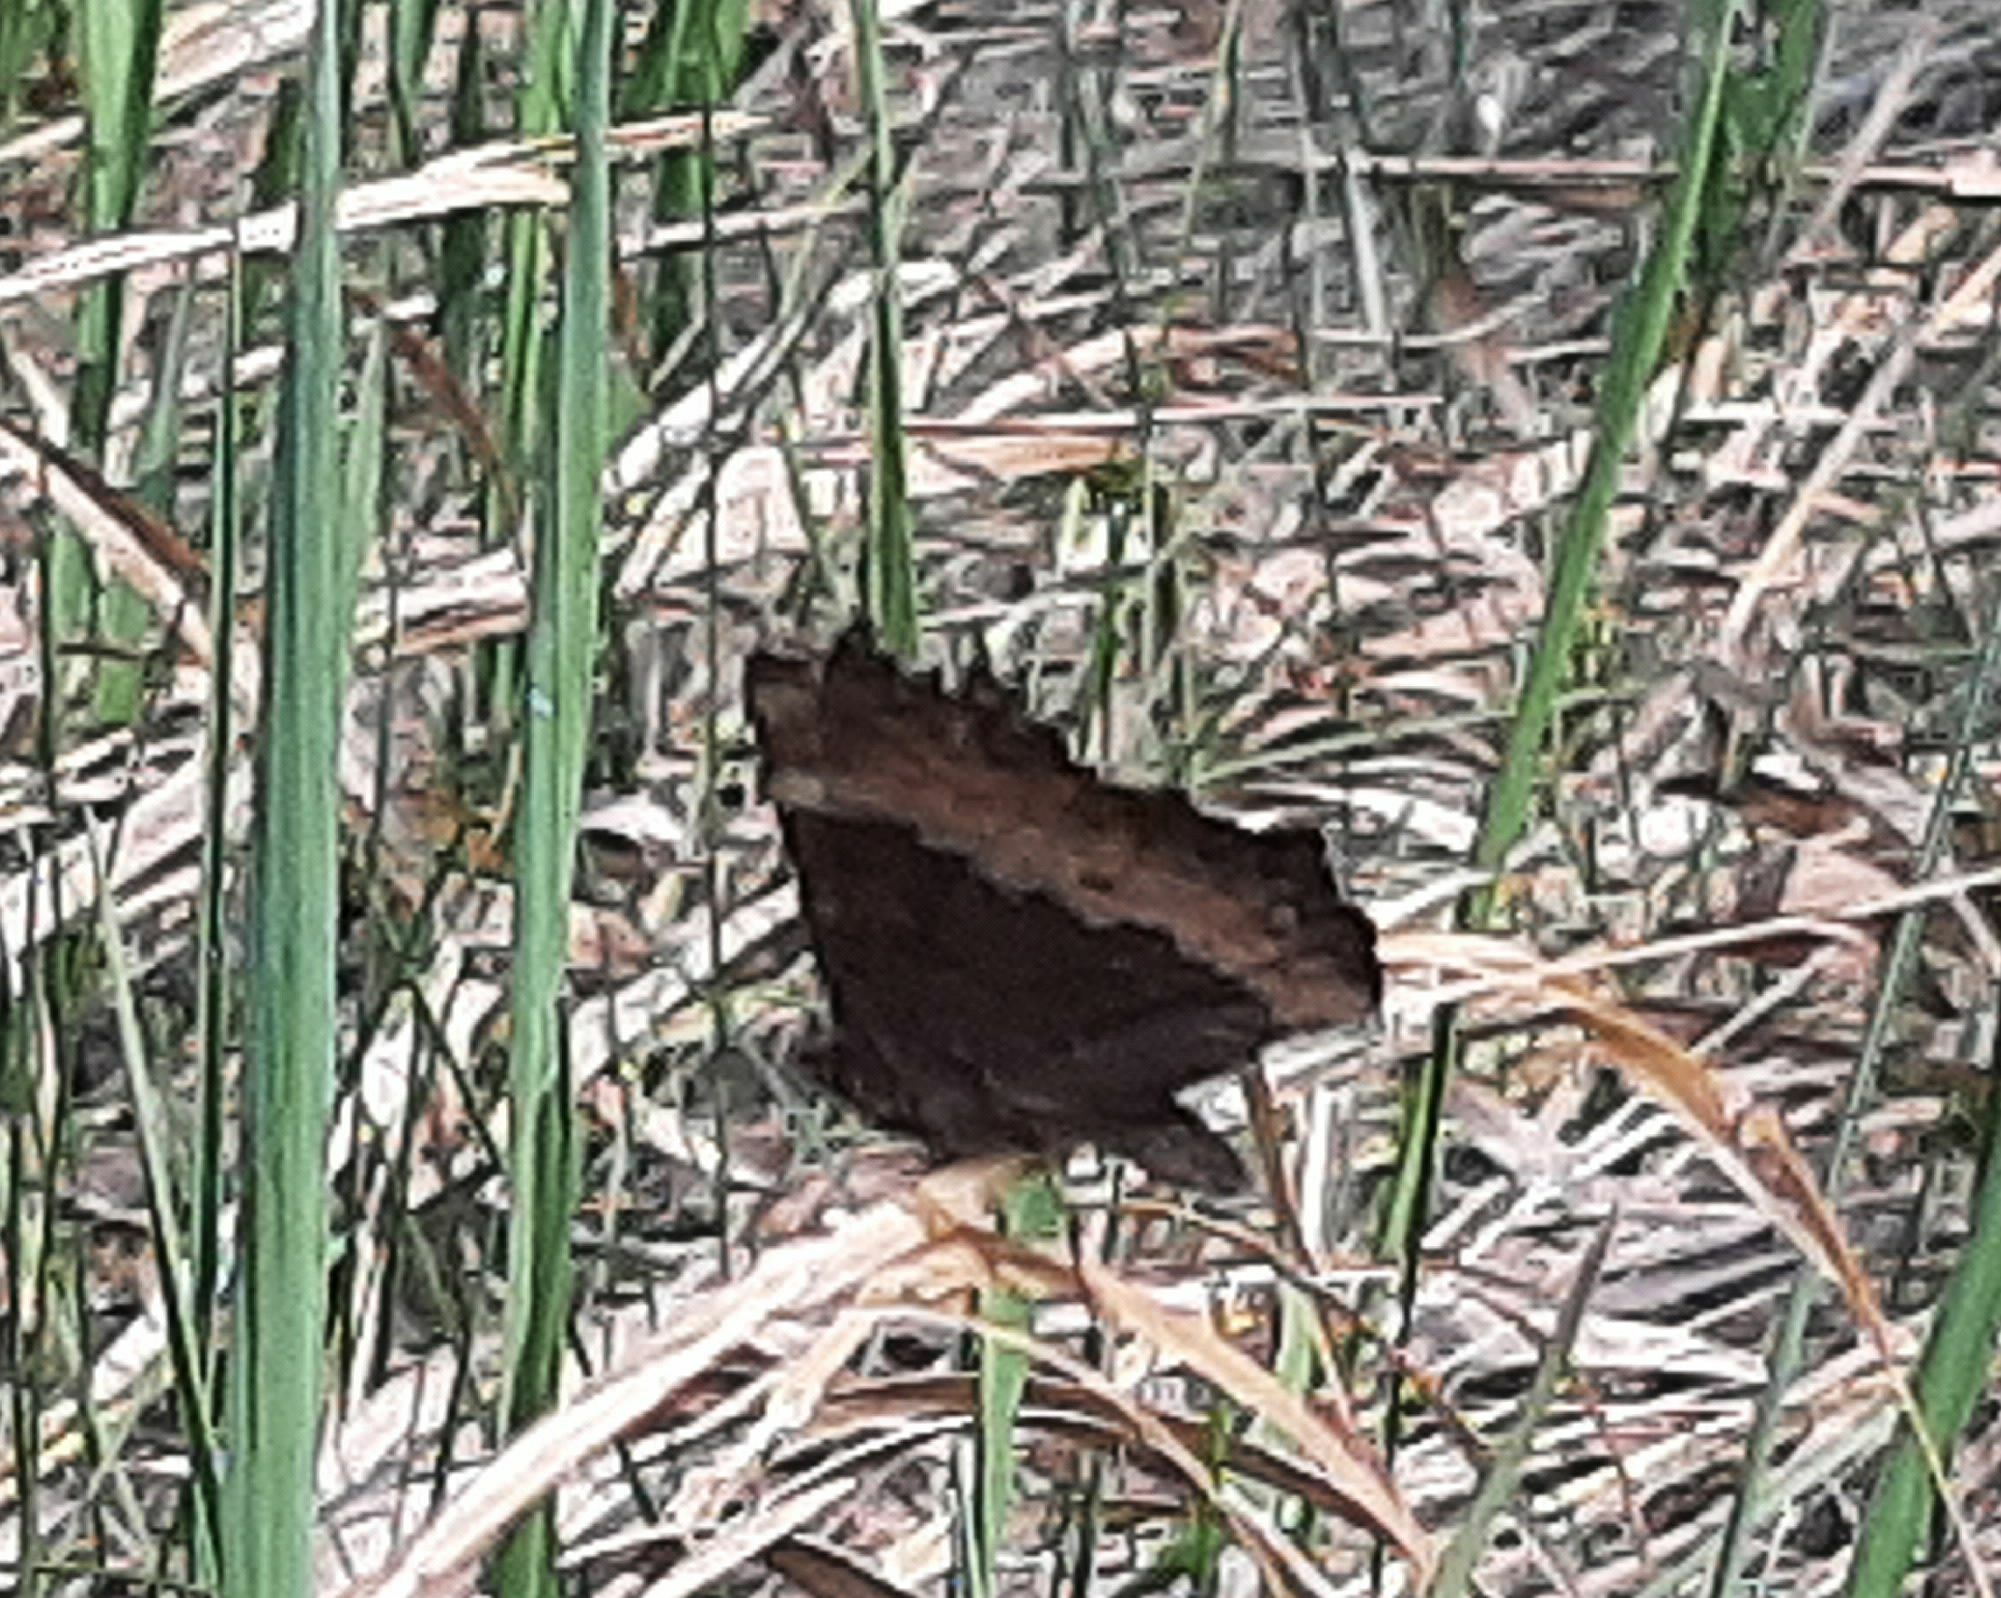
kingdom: Animalia
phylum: Arthropoda
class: Insecta
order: Lepidoptera
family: Nymphalidae
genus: Aglais
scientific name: Aglais milberti
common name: Milbert's tortoiseshell
